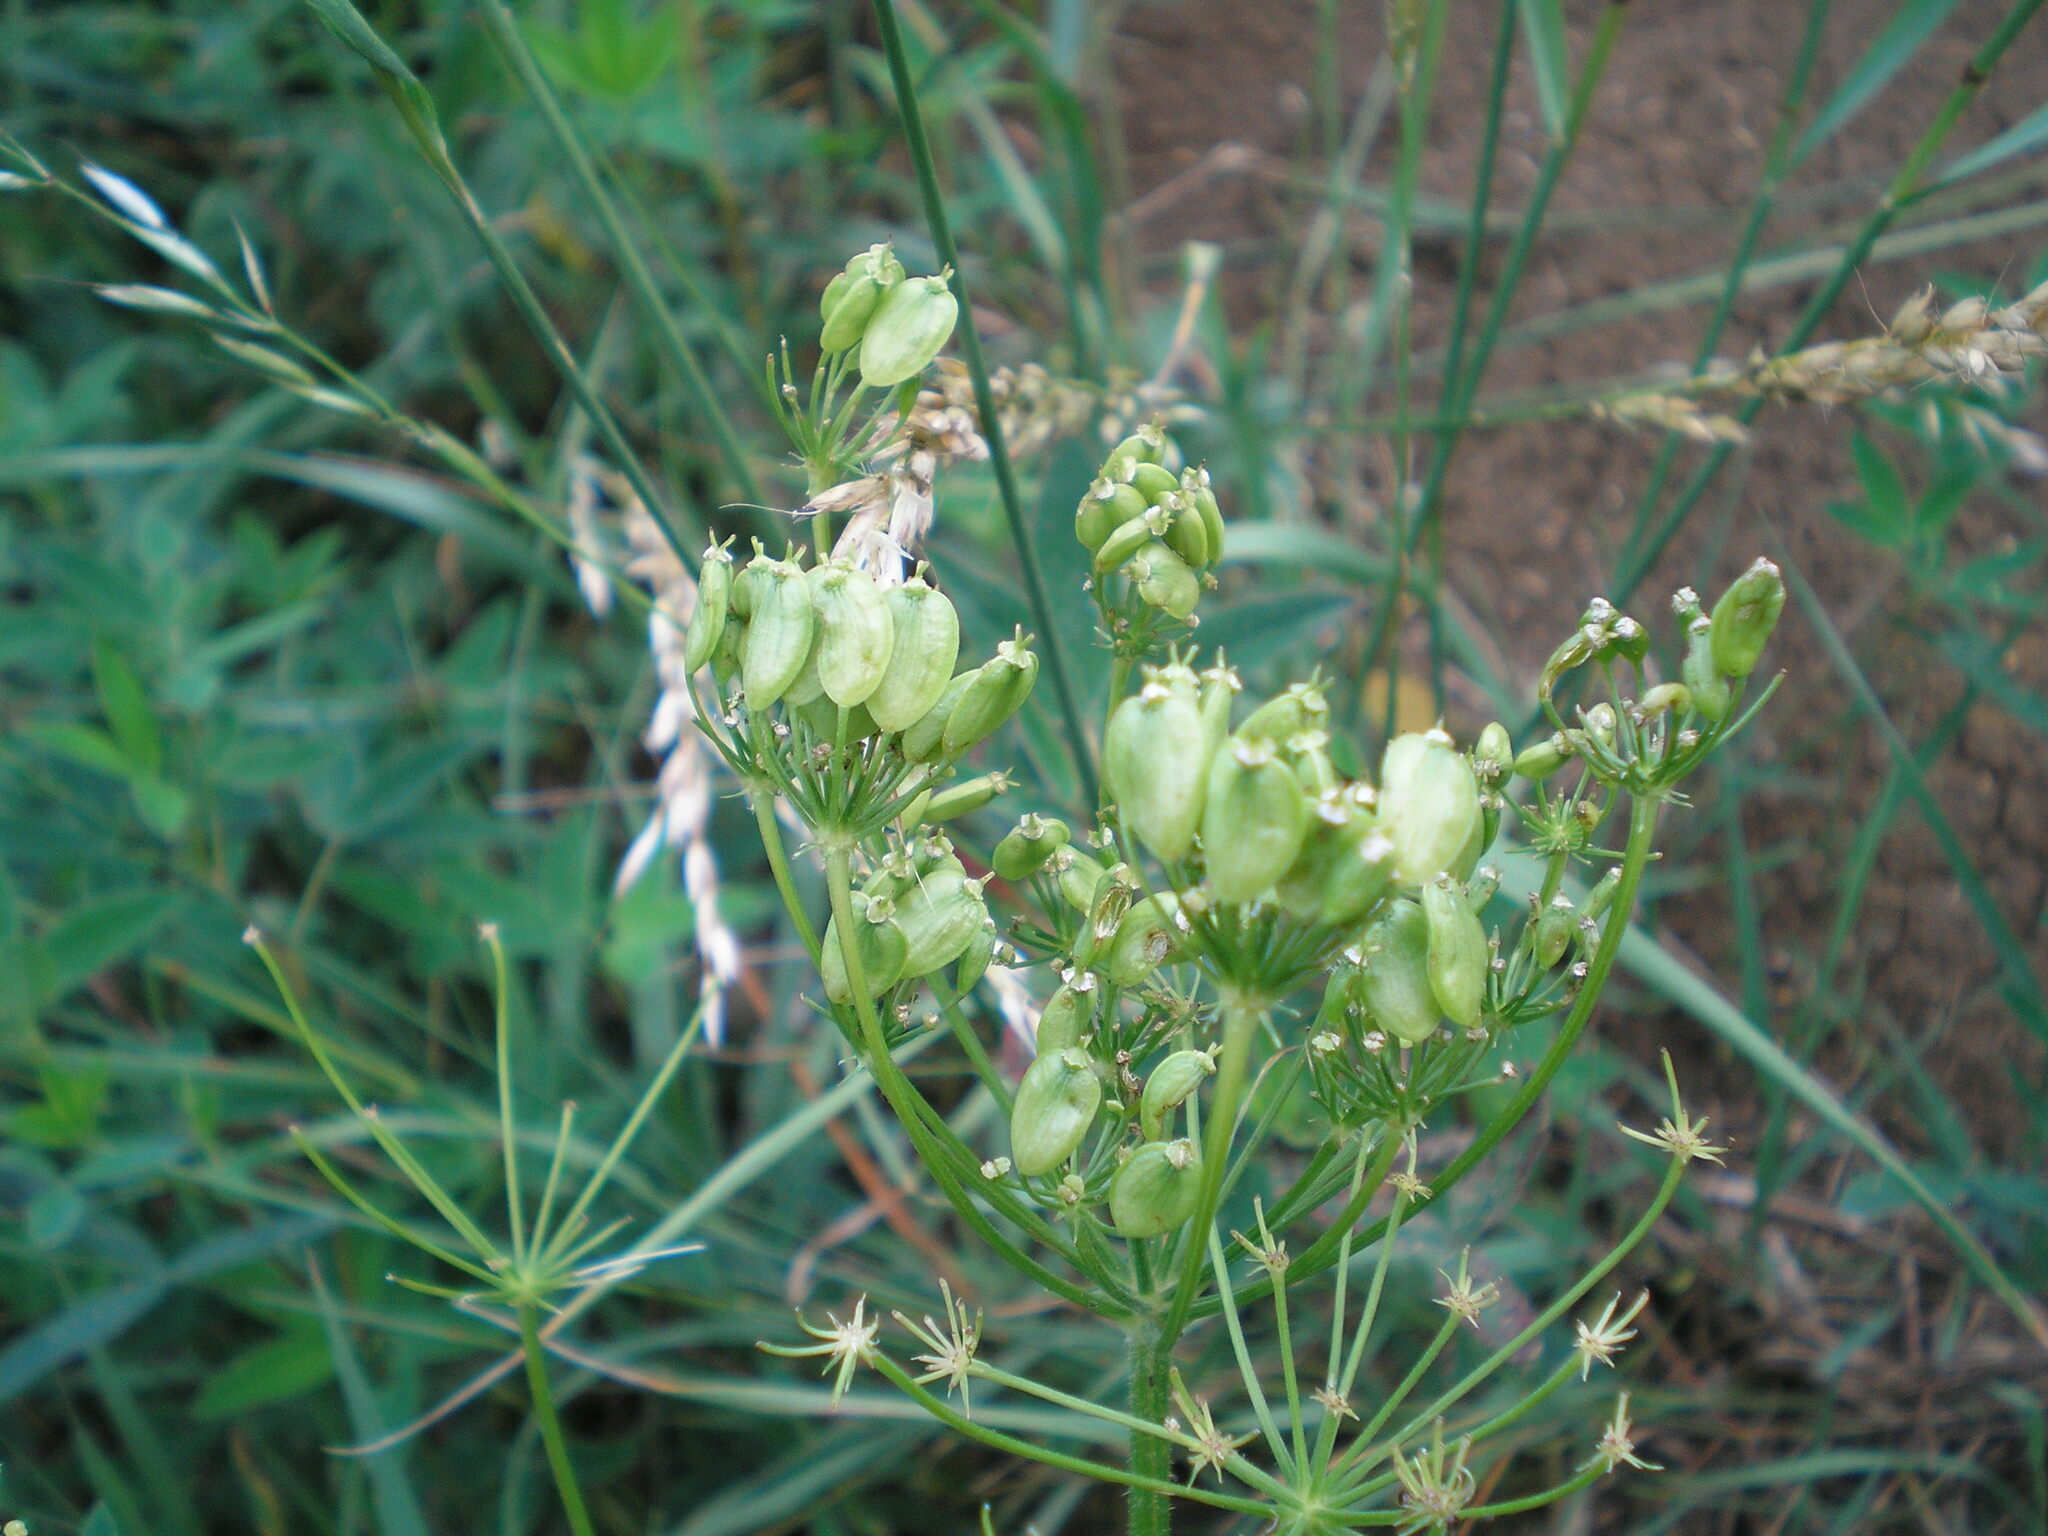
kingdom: Plantae
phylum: Tracheophyta
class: Magnoliopsida
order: Apiales
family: Apiaceae
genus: Heracleum
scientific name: Heracleum sphondylium
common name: Hogweed
